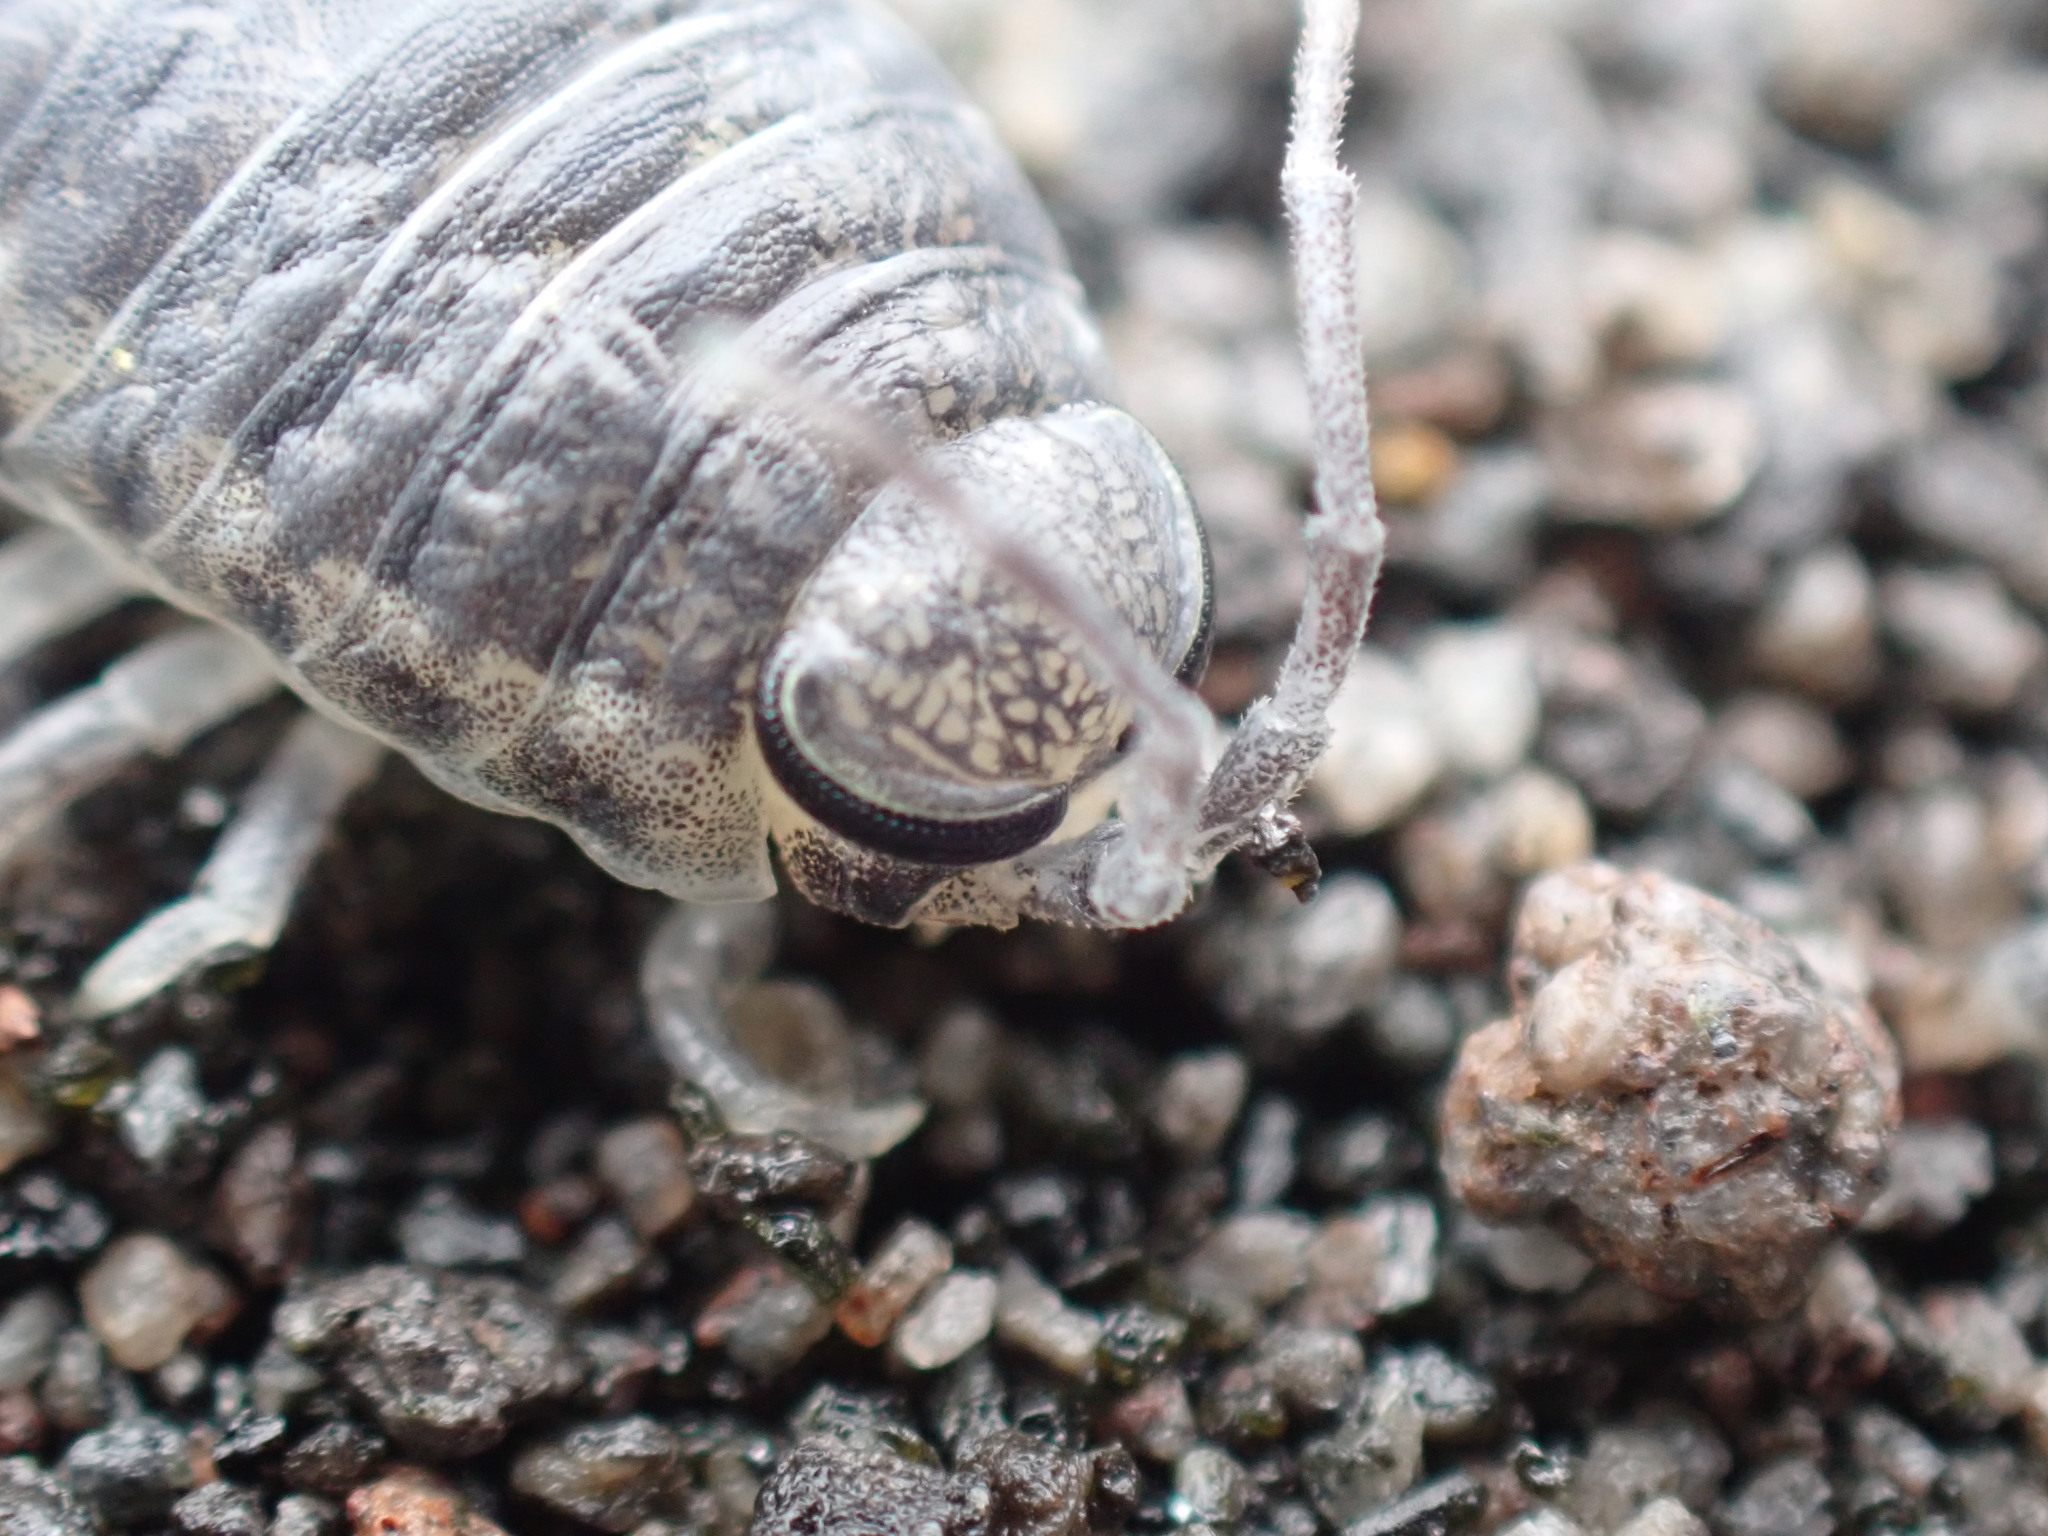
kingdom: Animalia
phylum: Arthropoda
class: Malacostraca
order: Isopoda
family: Scyphacidae
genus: Scyphax
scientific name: Scyphax ornatus
